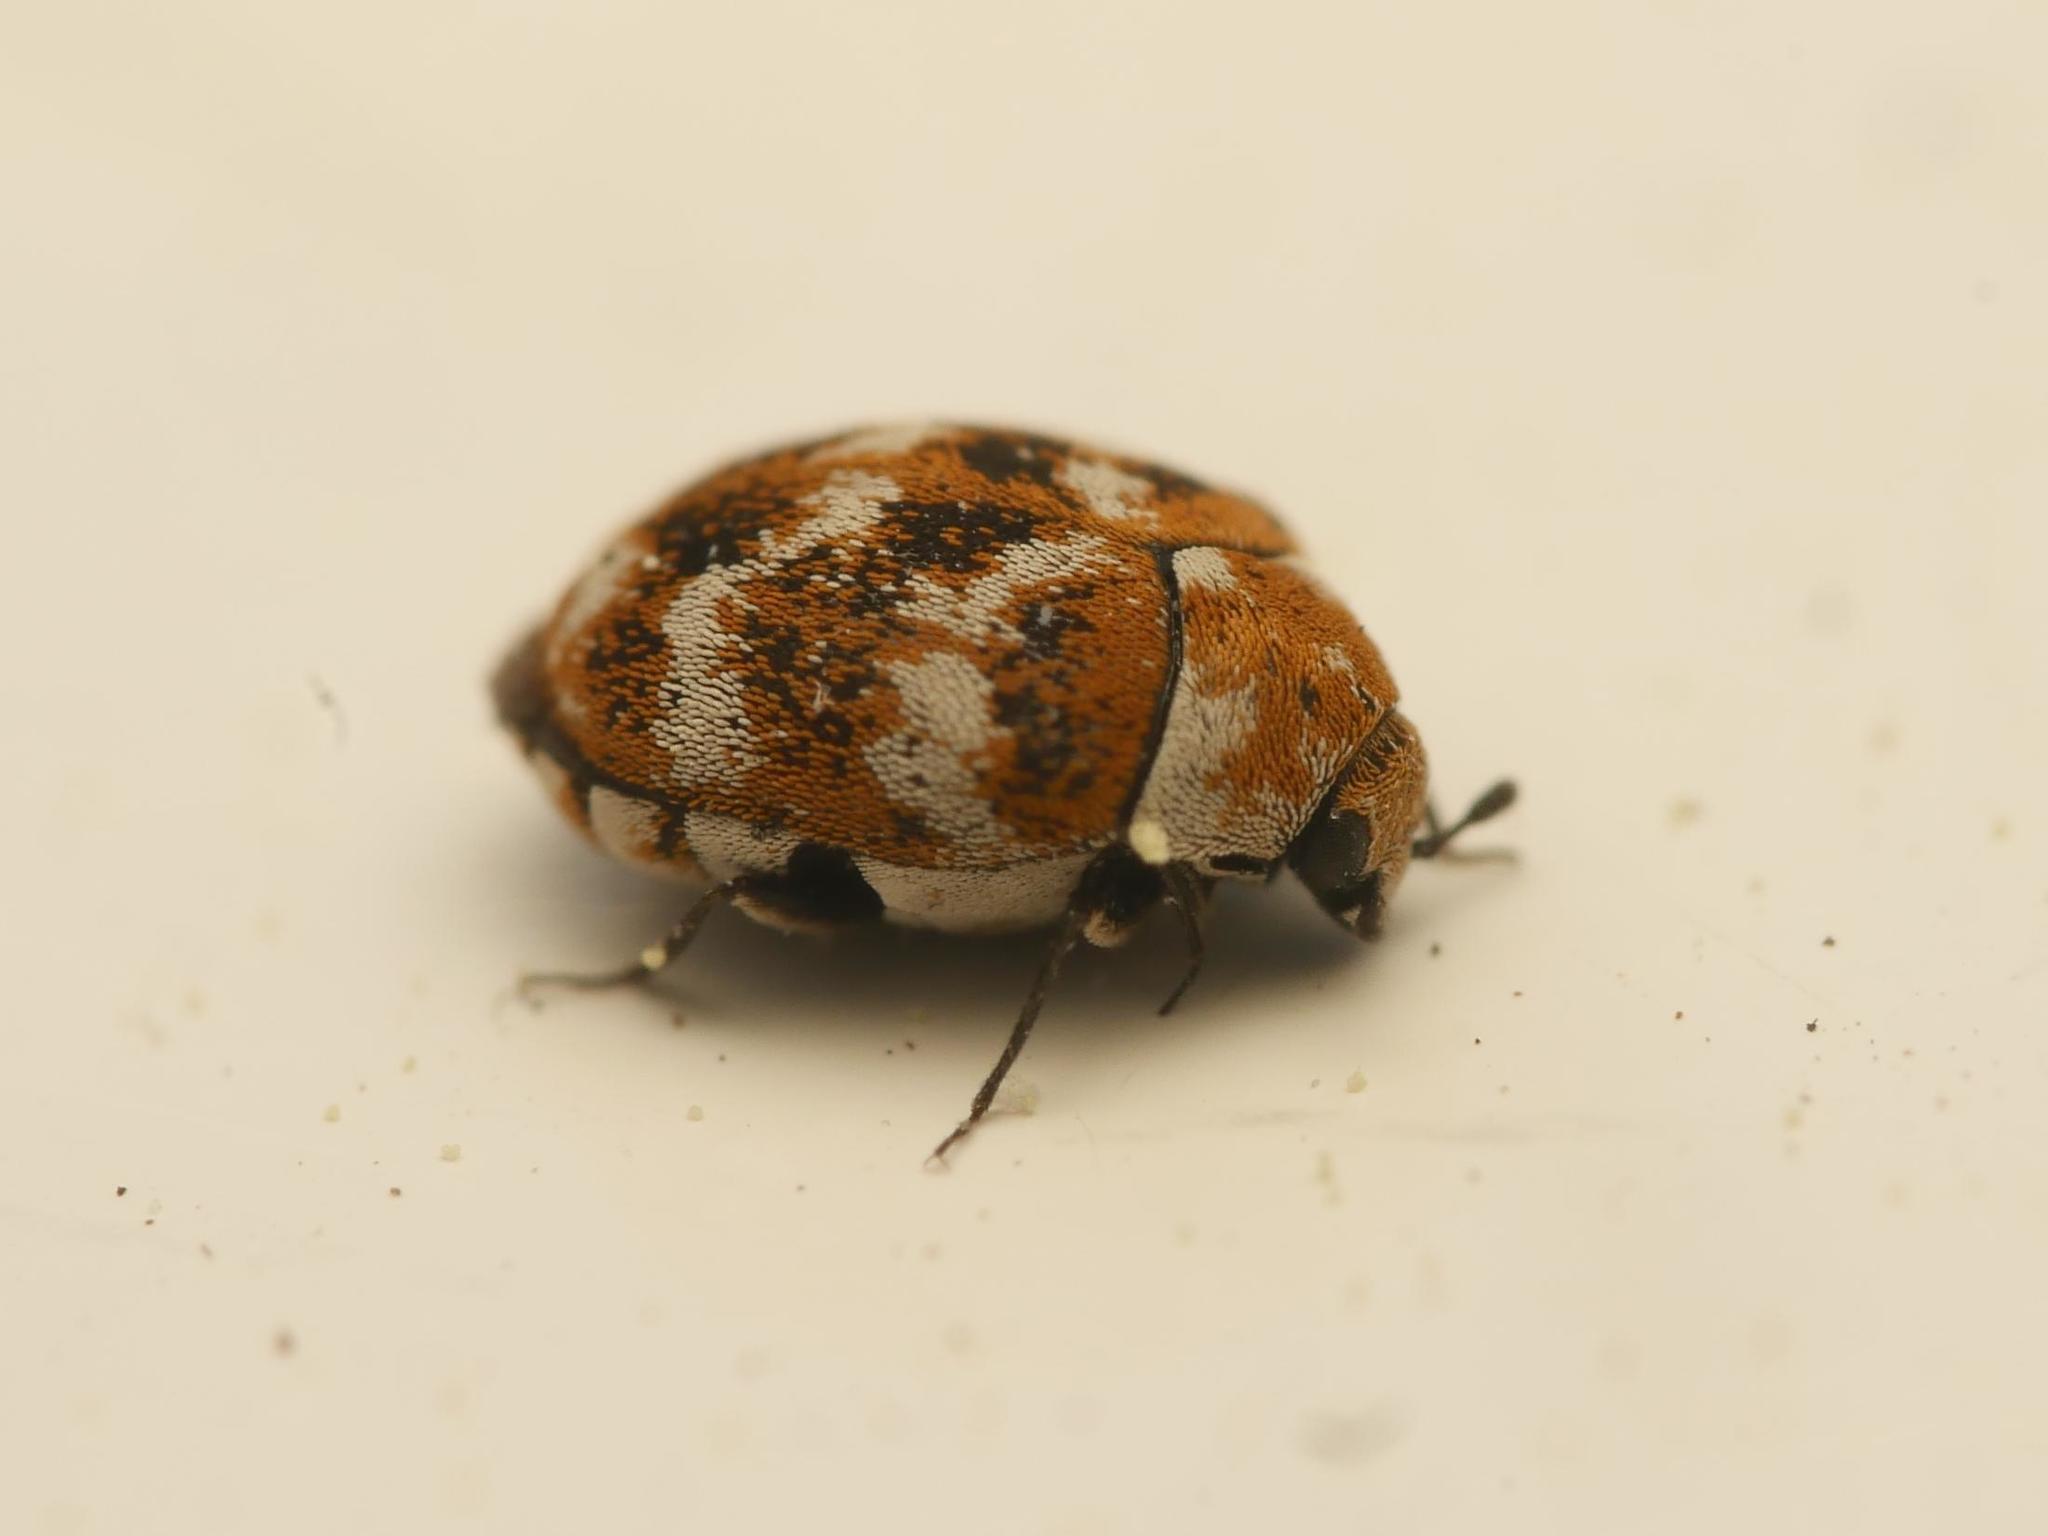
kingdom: Animalia
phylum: Arthropoda
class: Insecta
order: Coleoptera
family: Dermestidae
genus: Anthrenus
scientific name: Anthrenus verbasci
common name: Varied carpet beetle
